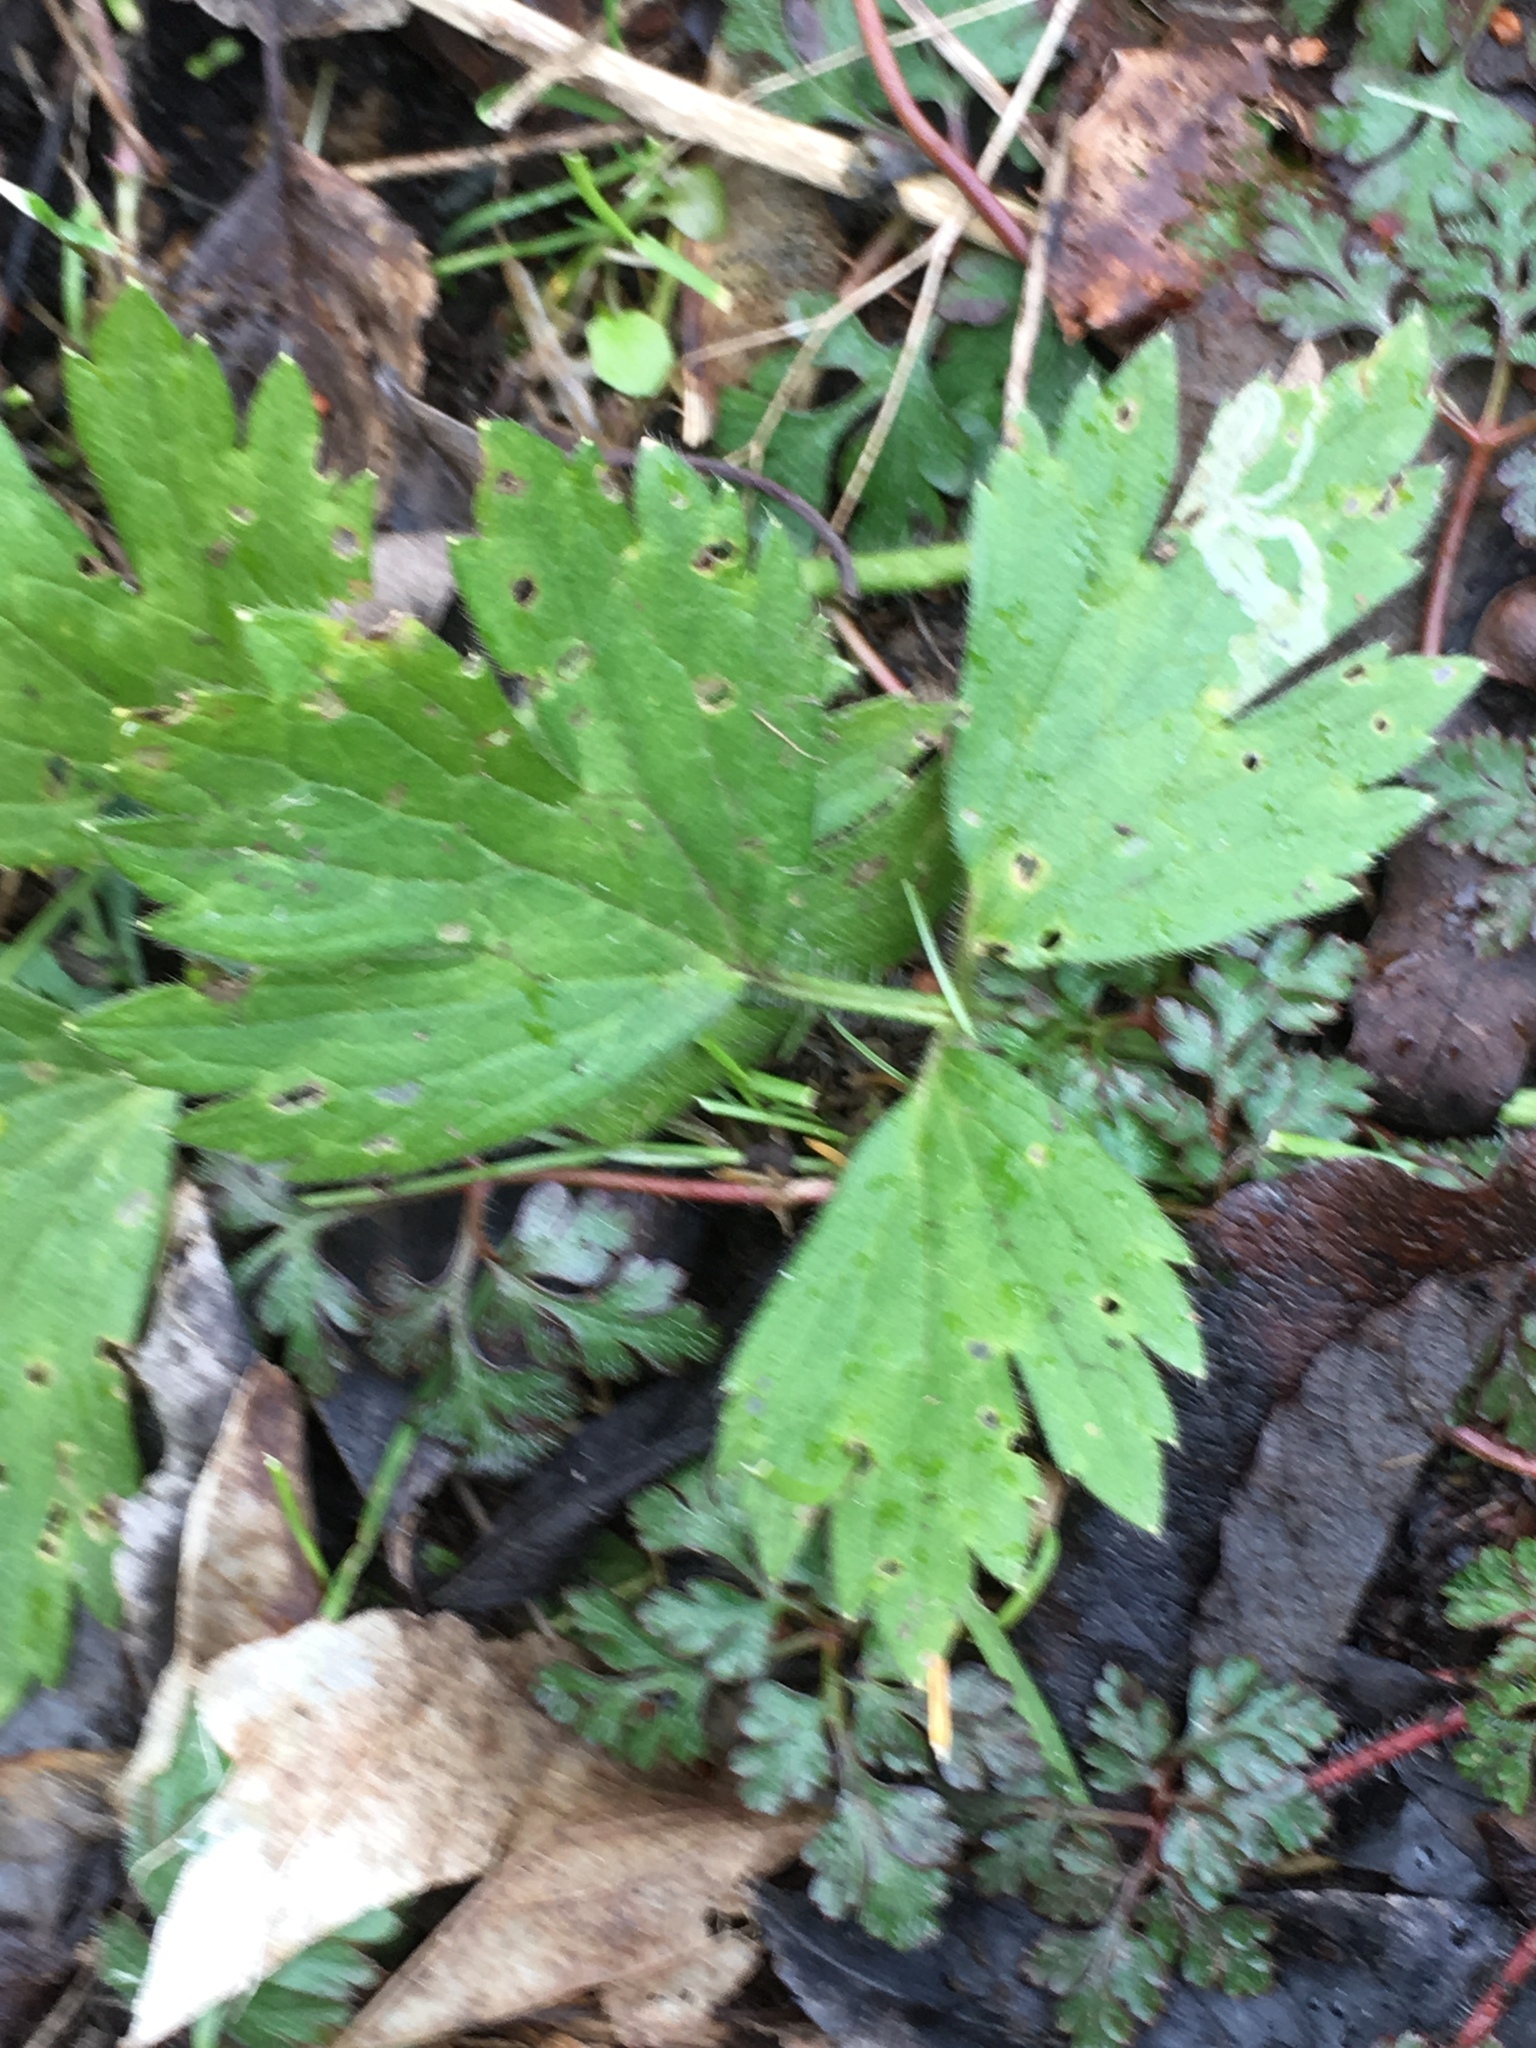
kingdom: Plantae
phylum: Tracheophyta
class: Magnoliopsida
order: Ranunculales
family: Ranunculaceae
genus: Ranunculus
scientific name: Ranunculus repens
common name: Creeping buttercup
